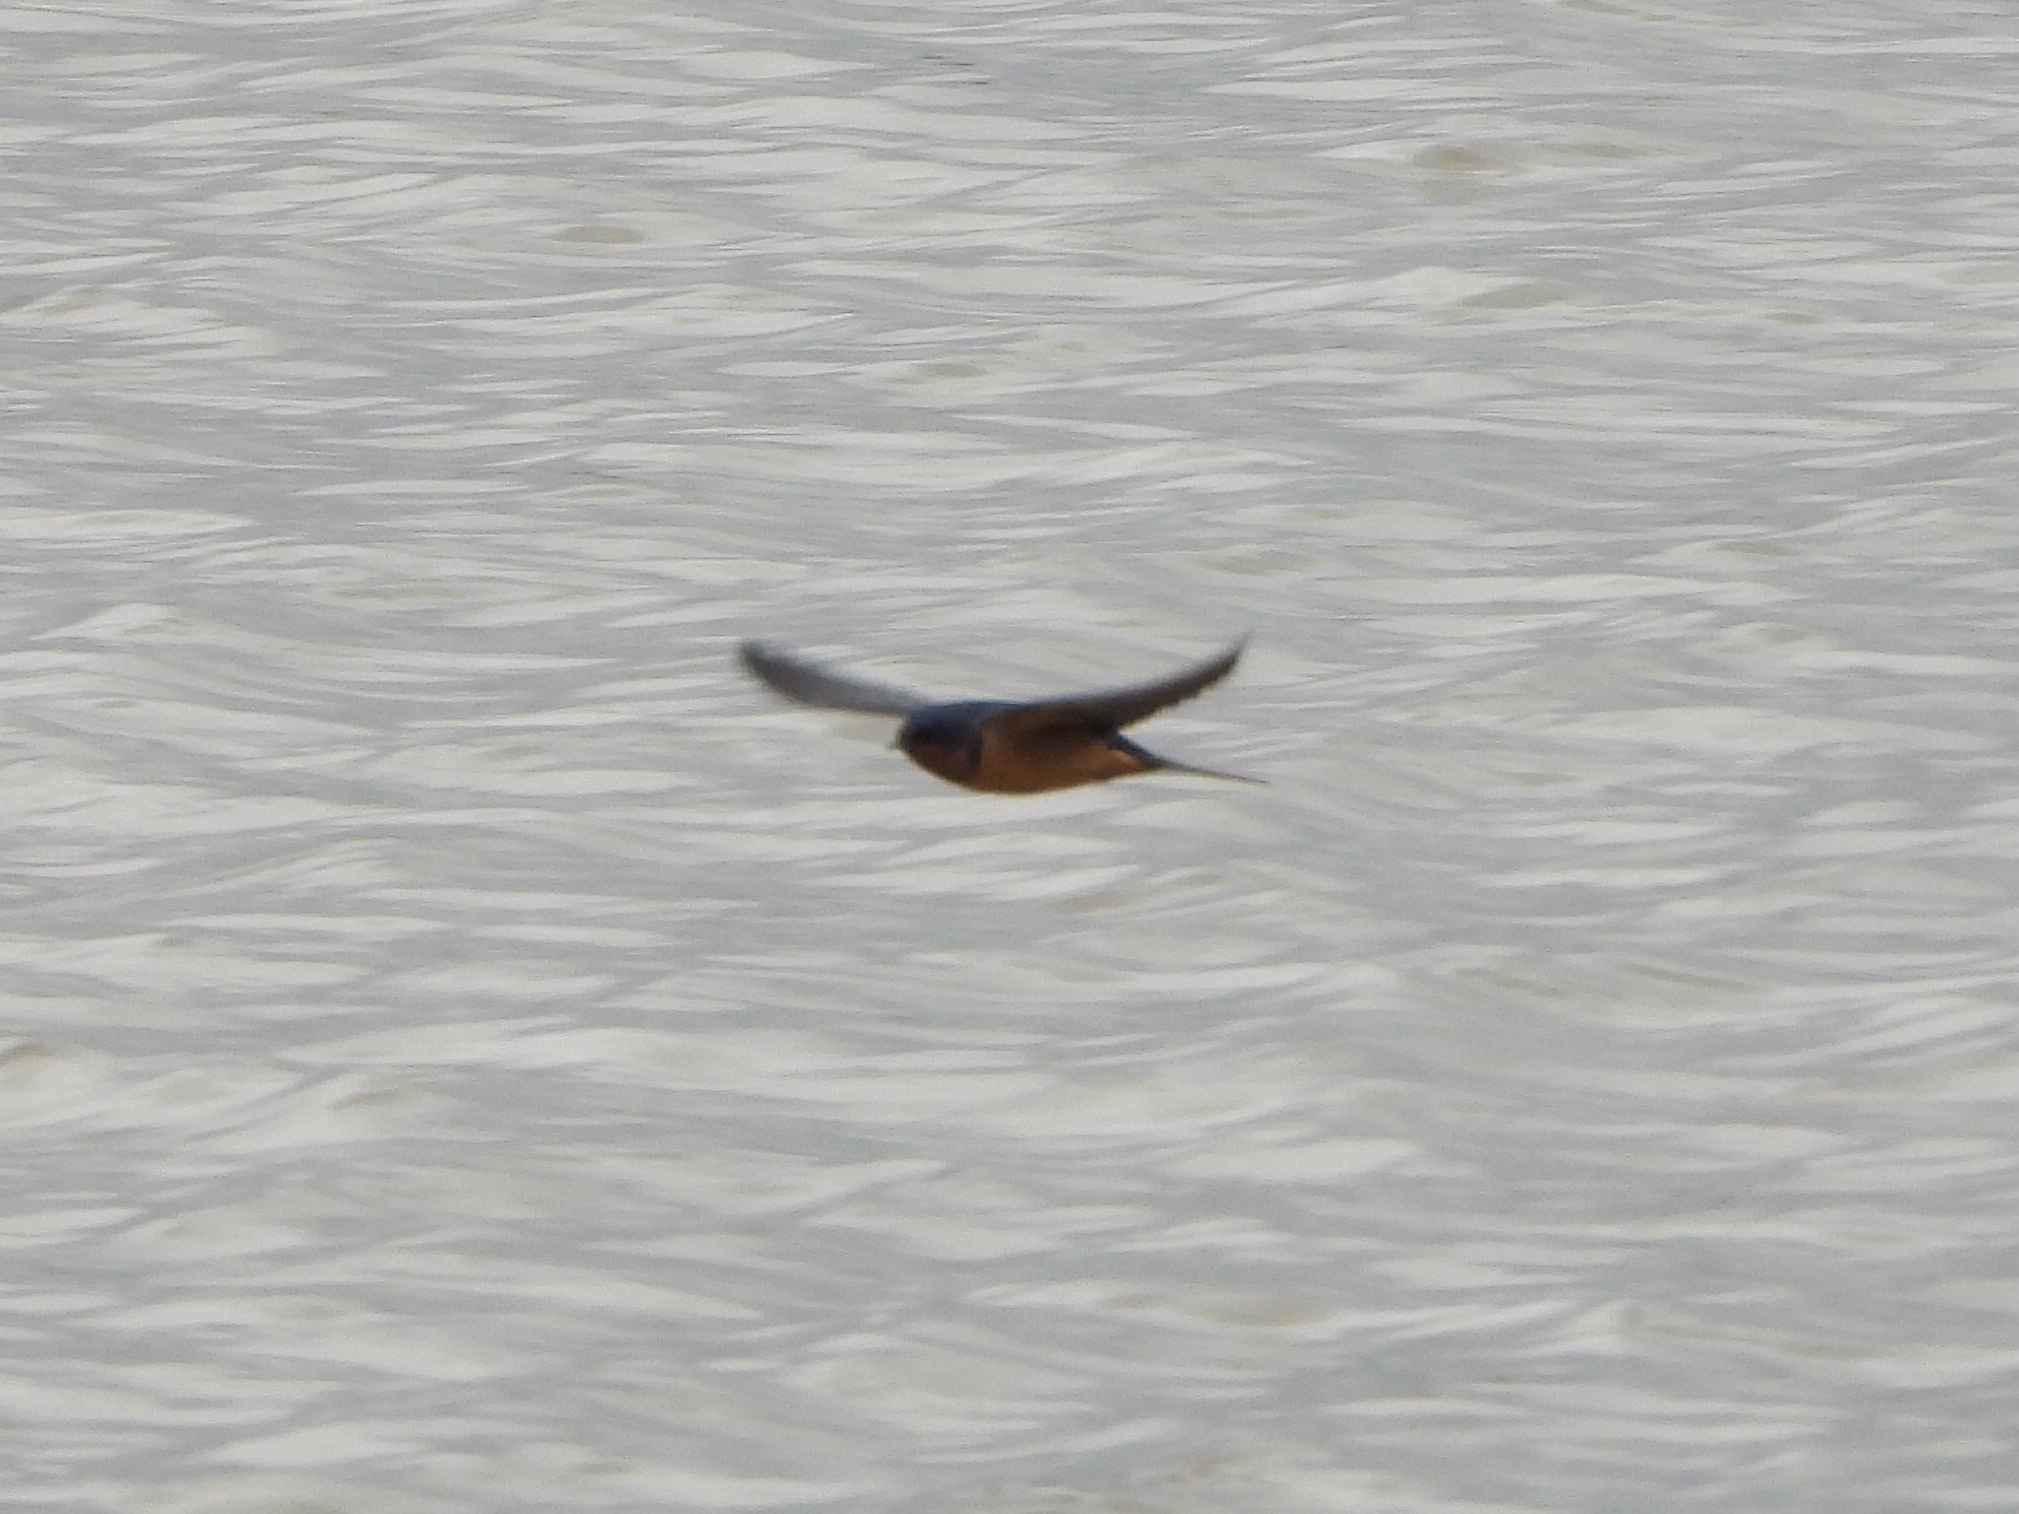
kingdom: Animalia
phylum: Chordata
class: Aves
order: Passeriformes
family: Hirundinidae
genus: Hirundo
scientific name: Hirundo rustica
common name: Barn swallow
